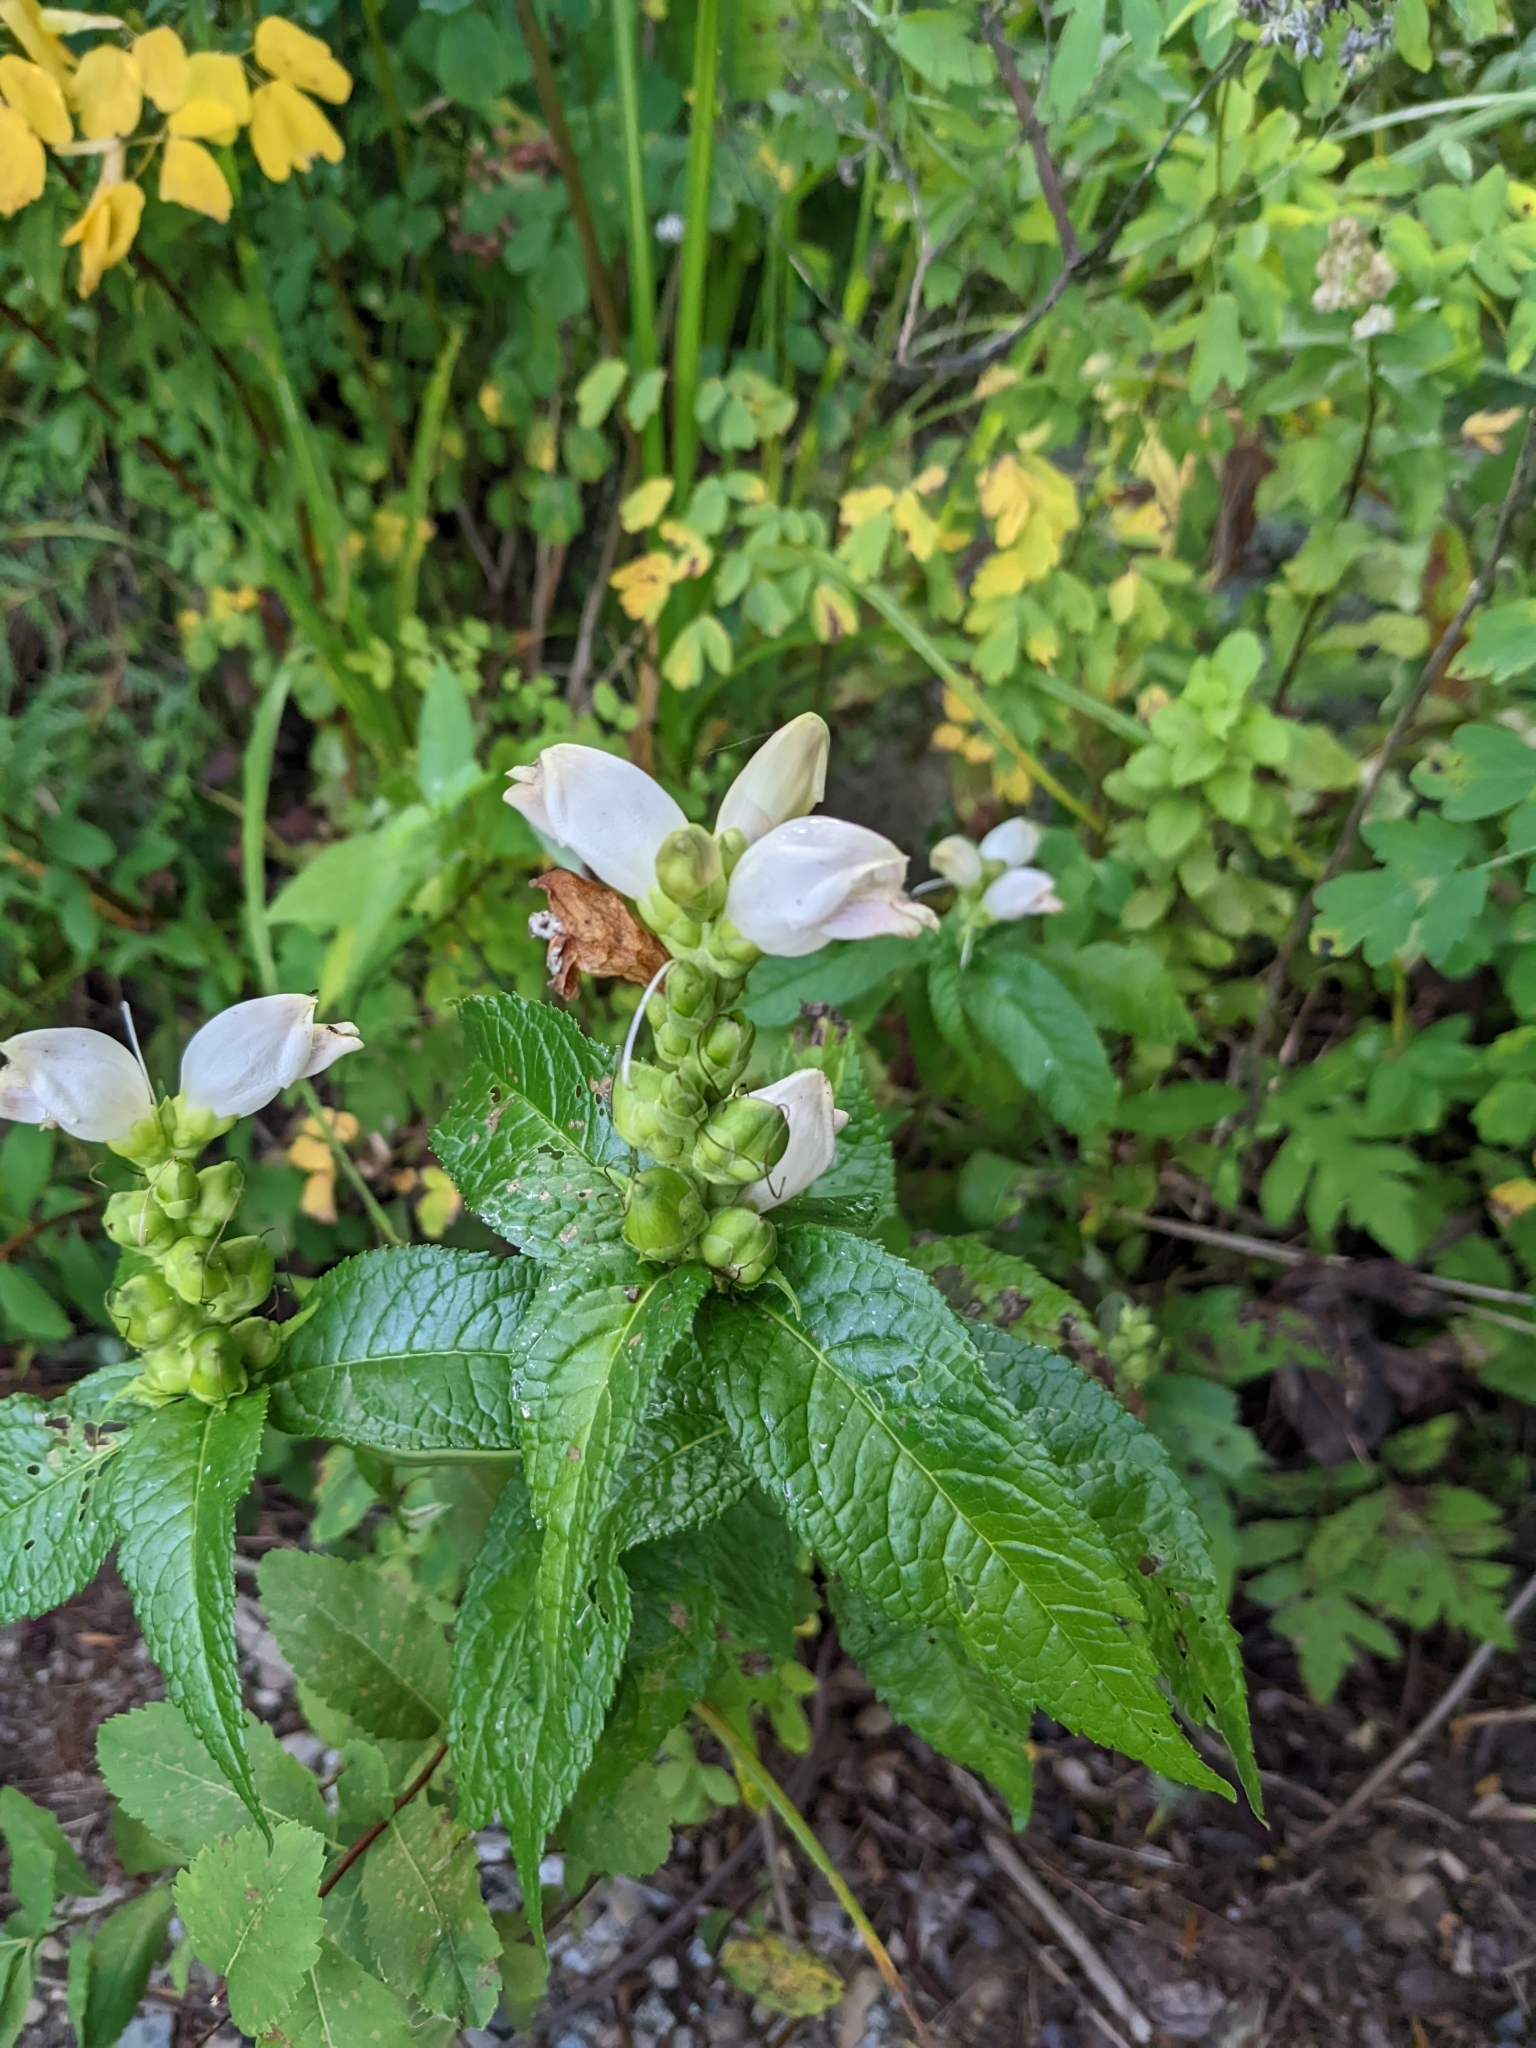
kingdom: Plantae
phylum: Tracheophyta
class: Magnoliopsida
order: Lamiales
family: Plantaginaceae
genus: Chelone
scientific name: Chelone glabra
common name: Snakehead
